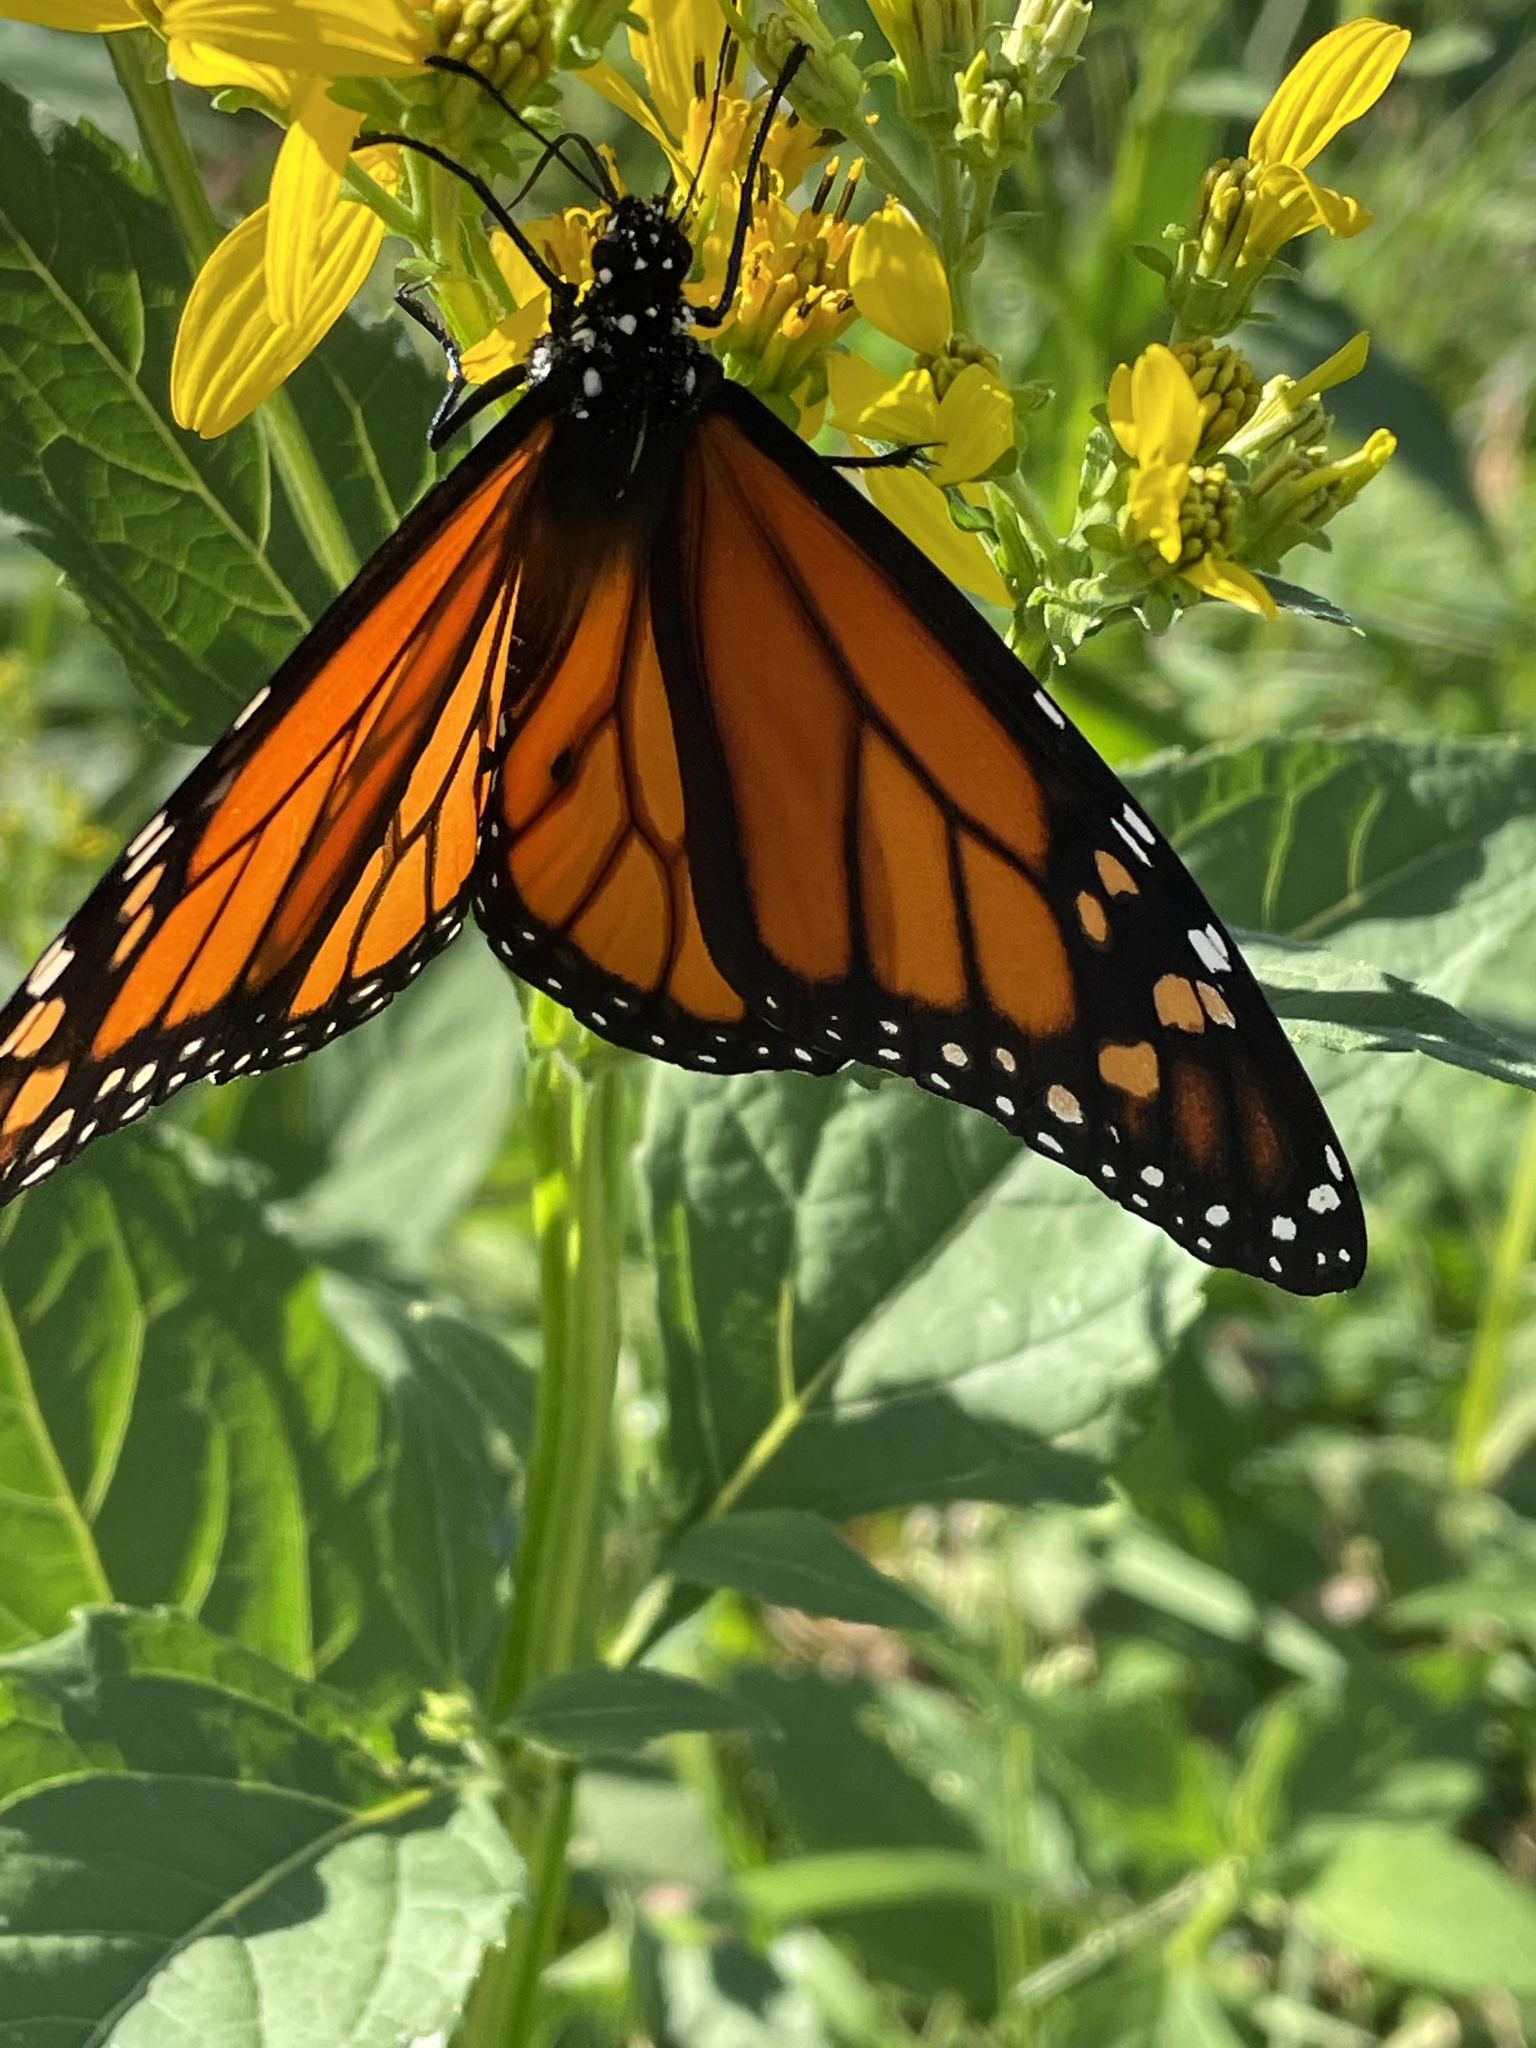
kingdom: Animalia
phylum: Arthropoda
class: Insecta
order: Lepidoptera
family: Nymphalidae
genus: Danaus
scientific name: Danaus plexippus
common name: Monarch
